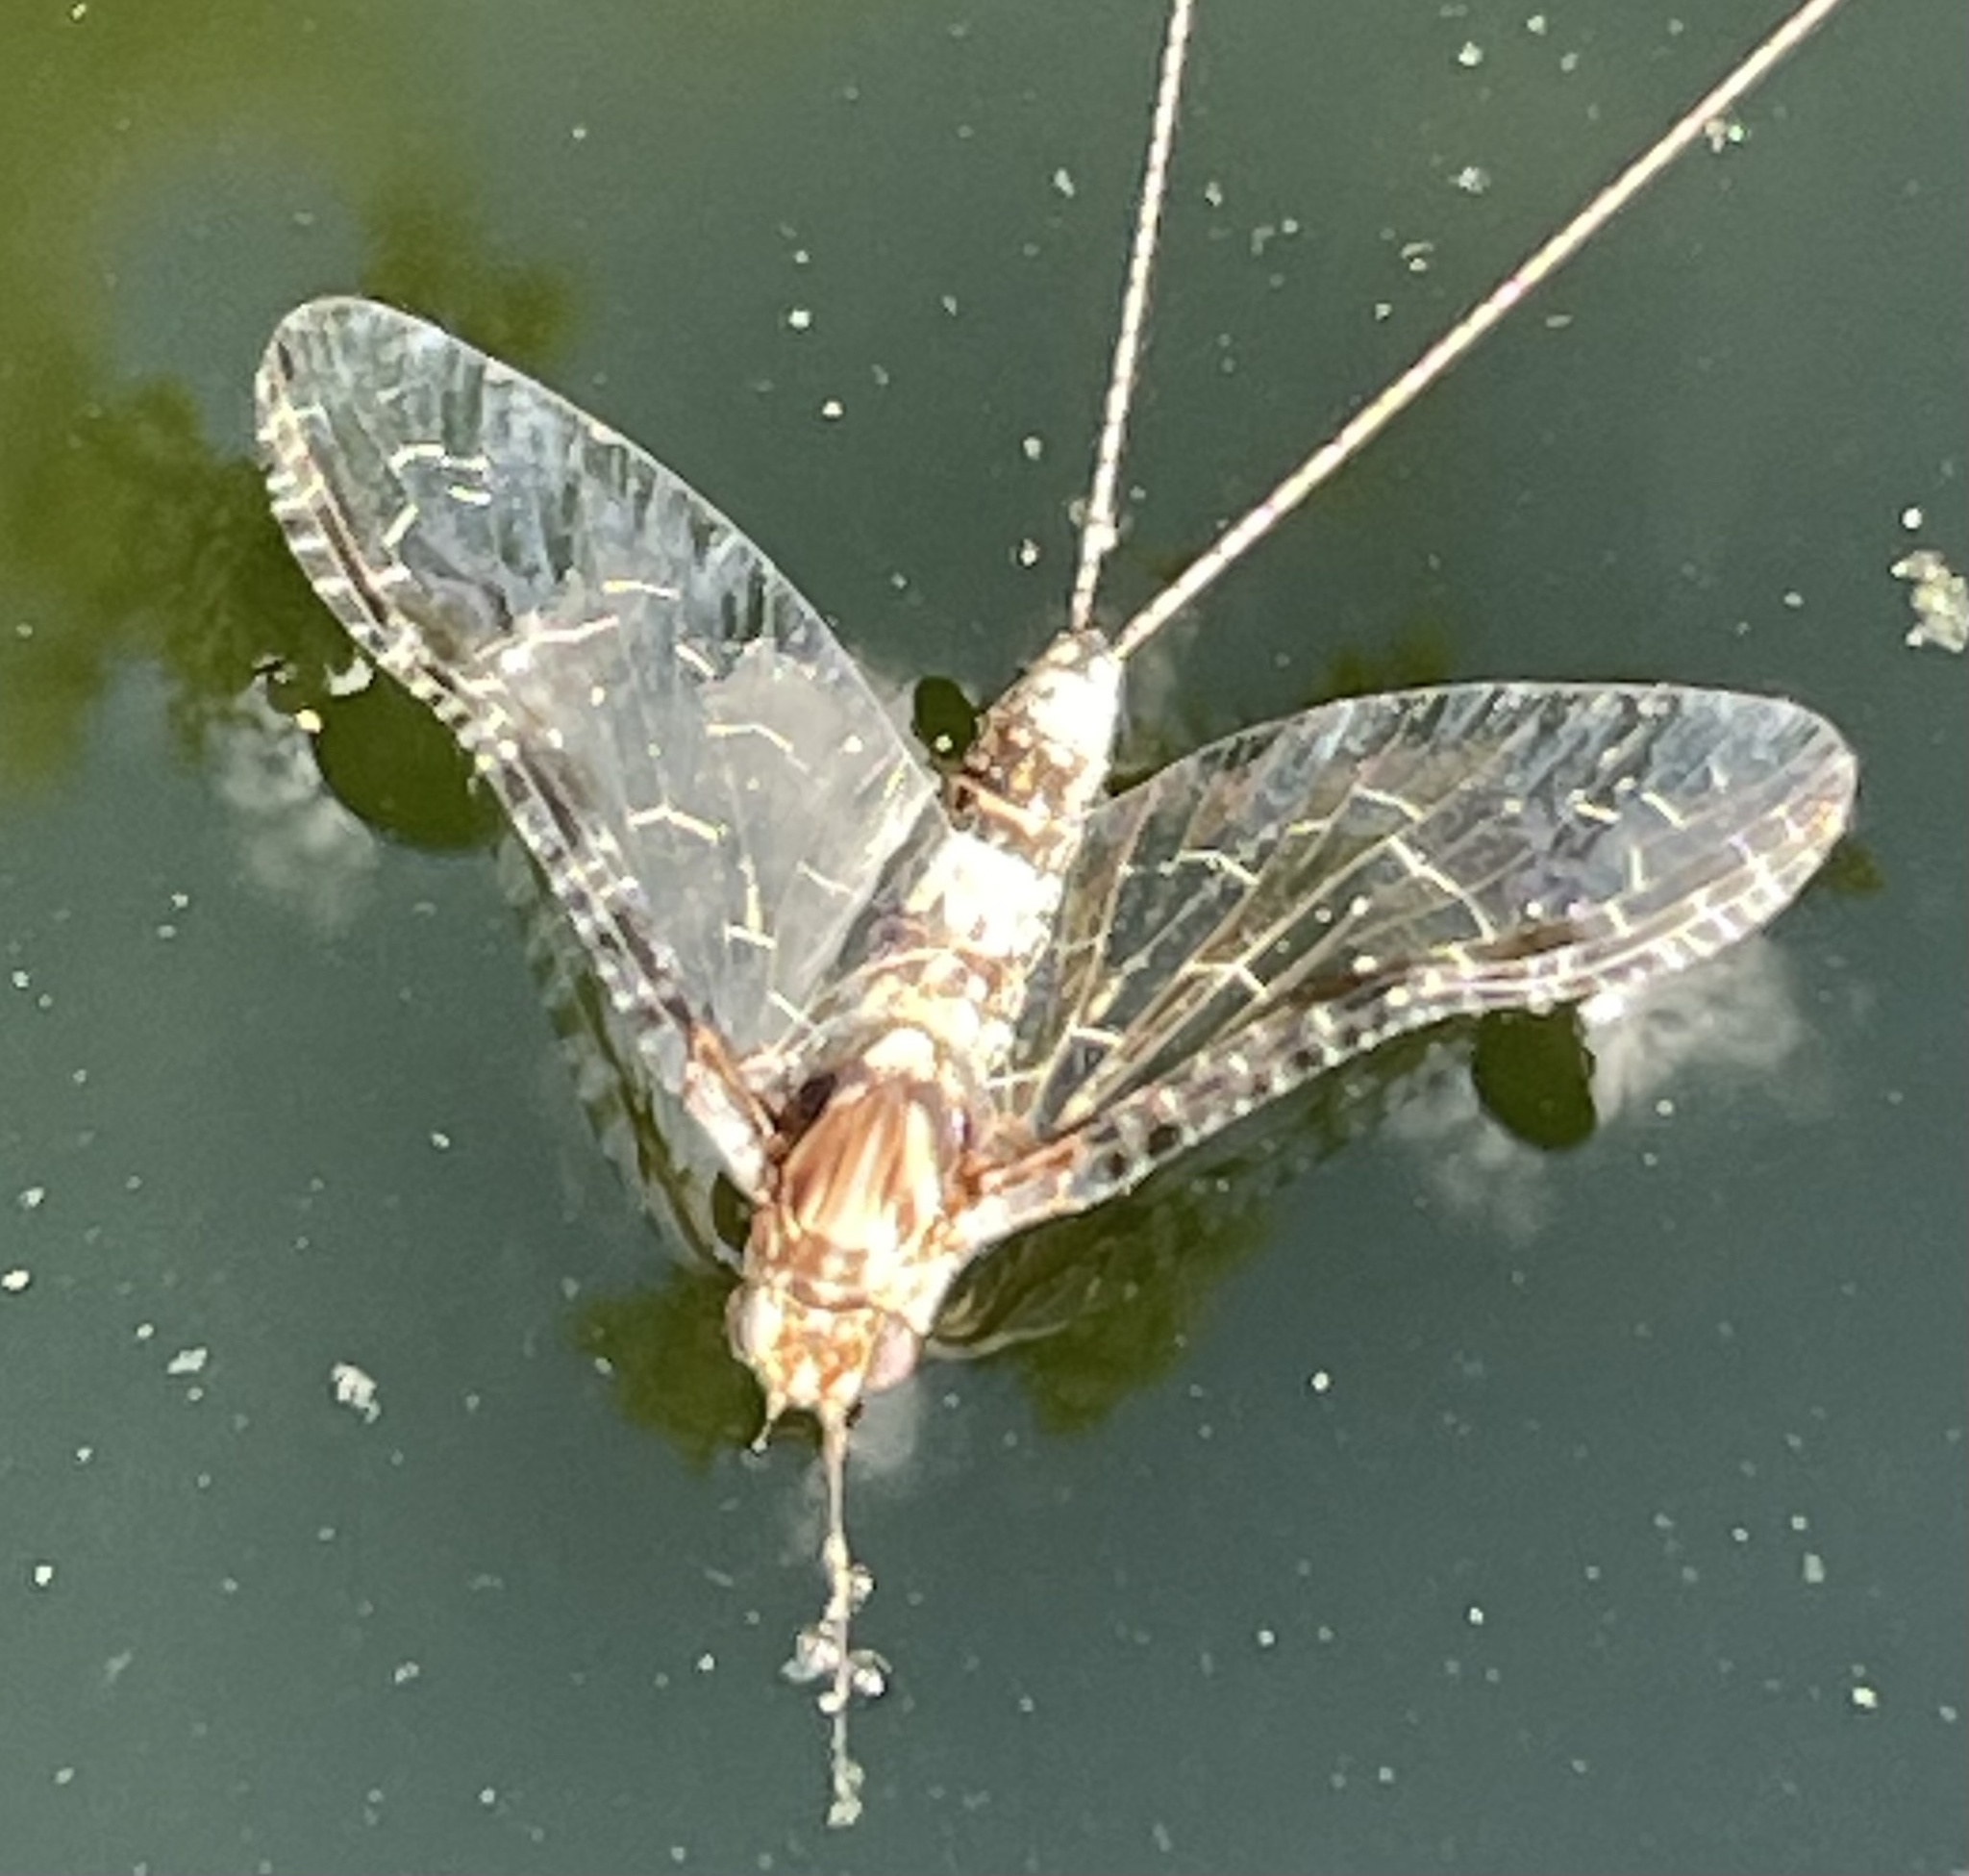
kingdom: Animalia
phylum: Arthropoda
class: Insecta
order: Ephemeroptera
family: Baetidae
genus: Callibaetis
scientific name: Callibaetis pictus
